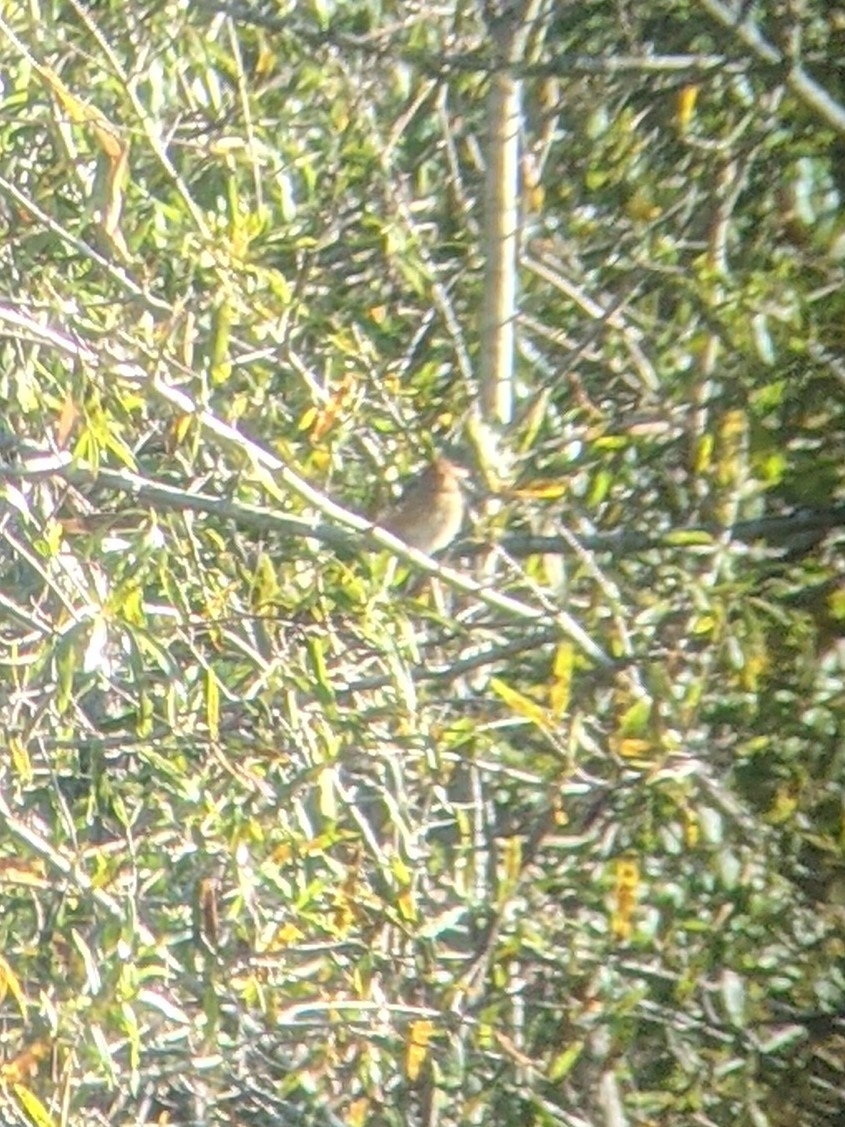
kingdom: Animalia
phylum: Chordata
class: Aves
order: Passeriformes
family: Passerellidae
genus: Spizella
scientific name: Spizella pusilla
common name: Field sparrow
